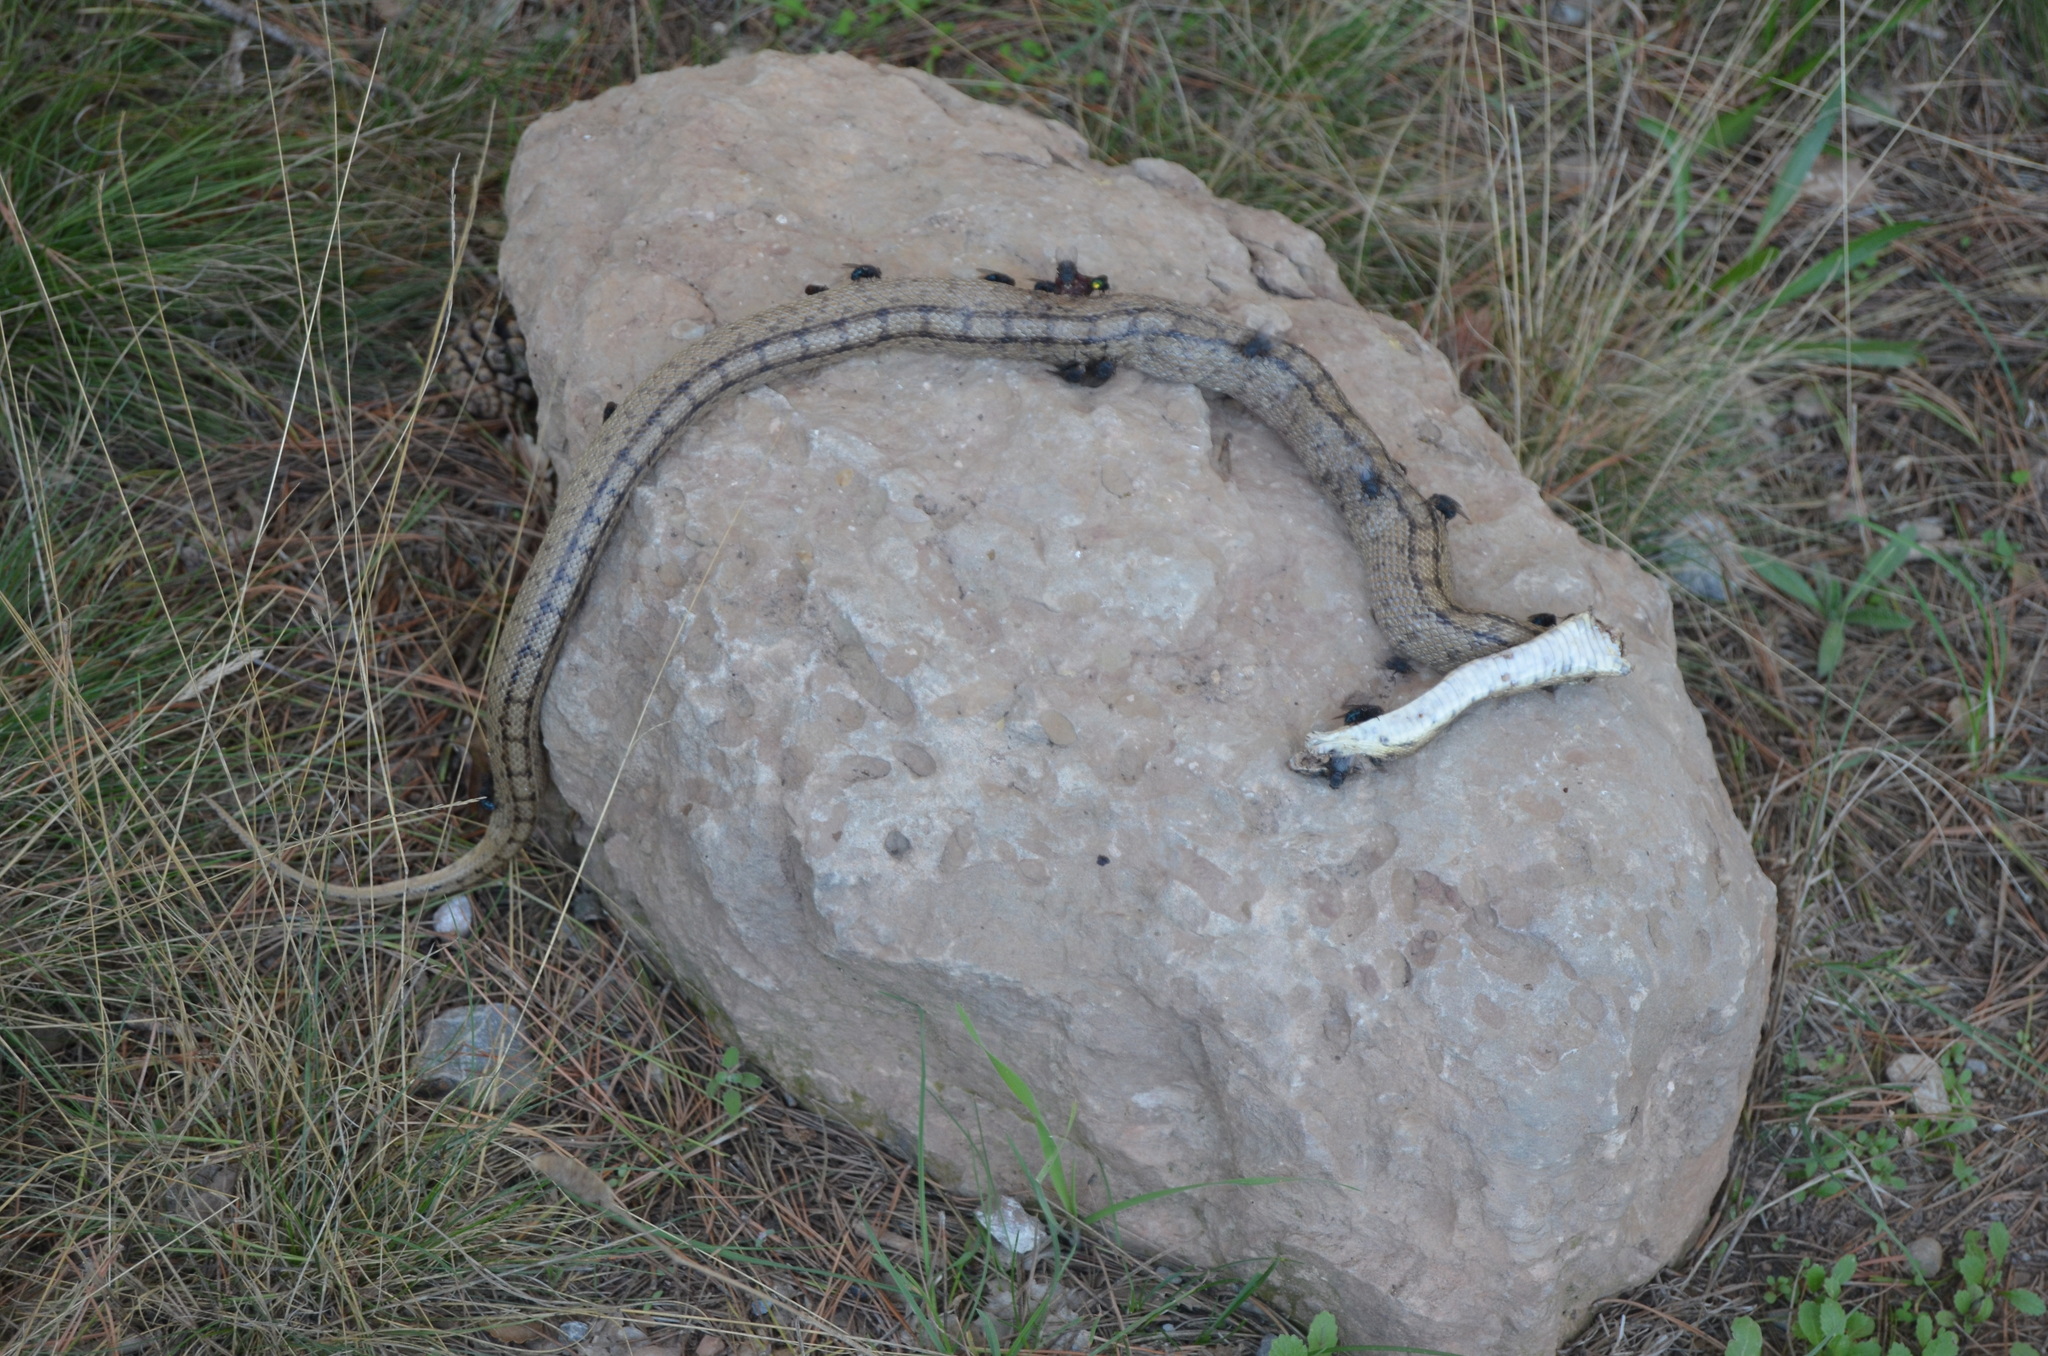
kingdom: Animalia
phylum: Chordata
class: Squamata
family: Colubridae
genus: Zamenis
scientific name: Zamenis scalaris
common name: Ladder snakes
